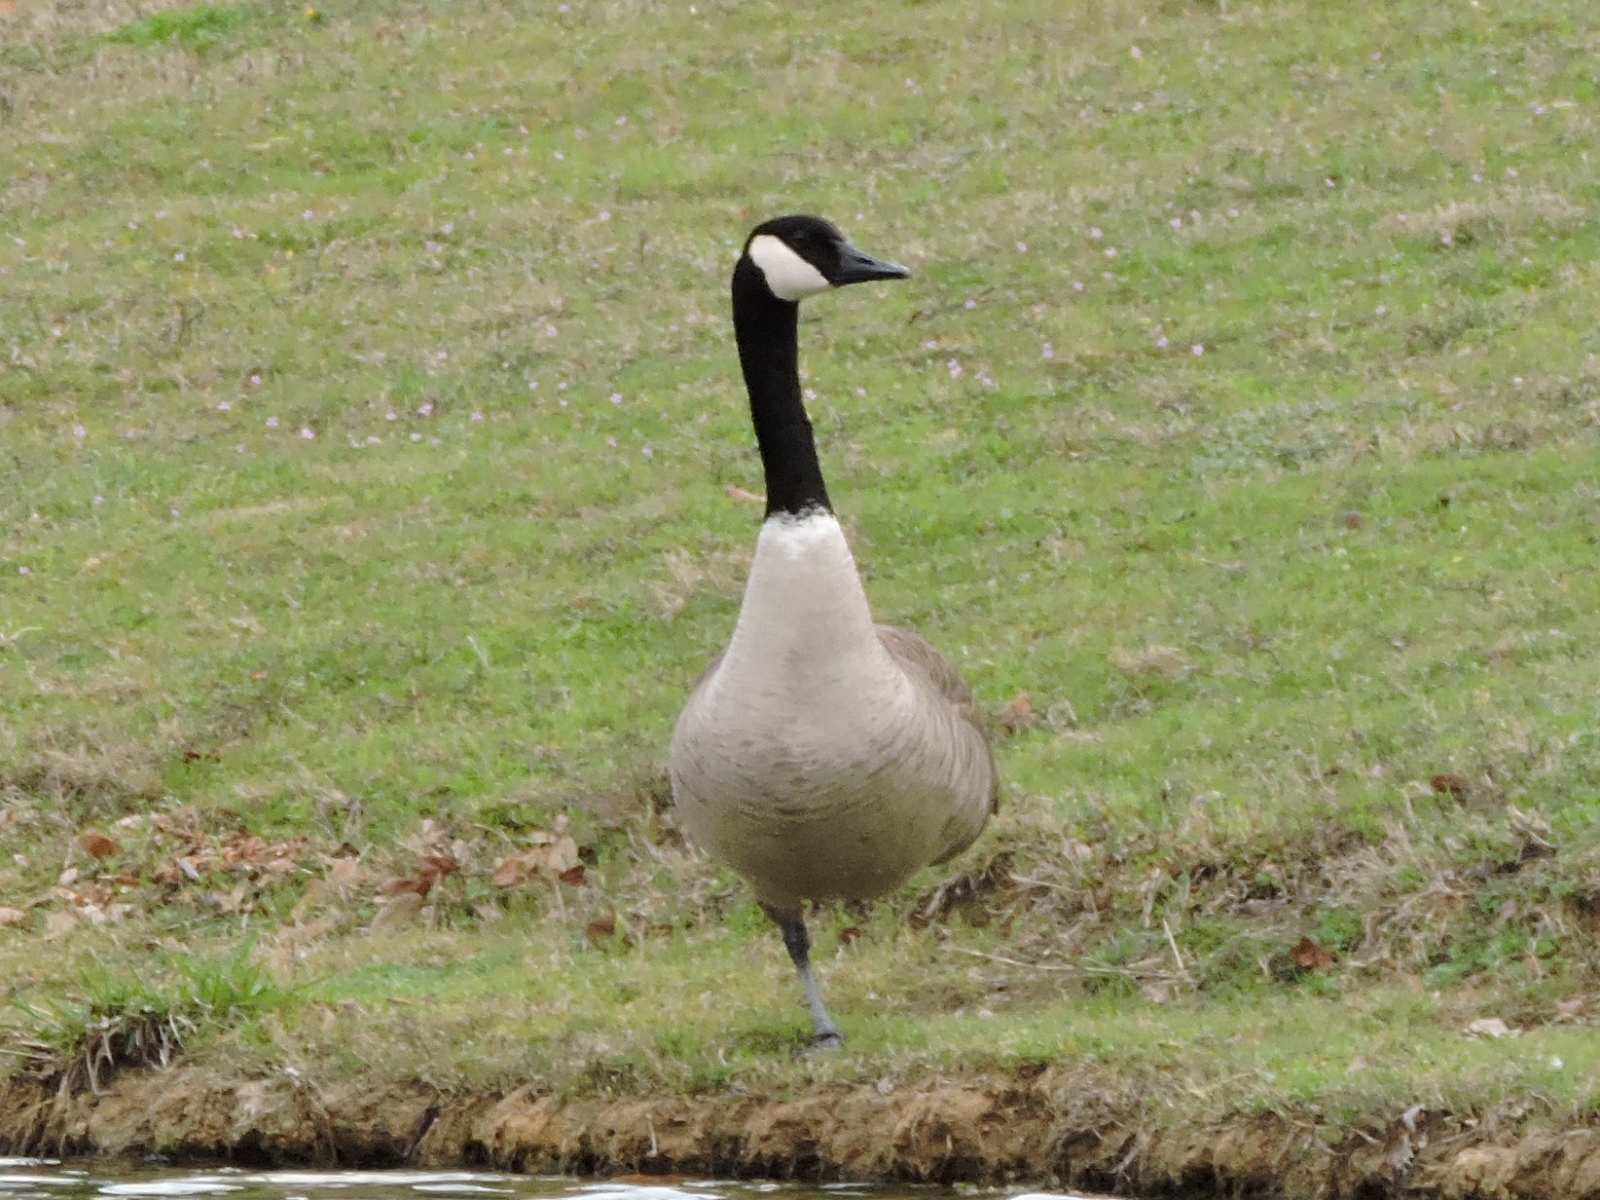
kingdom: Animalia
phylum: Chordata
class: Aves
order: Anseriformes
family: Anatidae
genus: Branta
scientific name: Branta canadensis
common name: Canada goose
